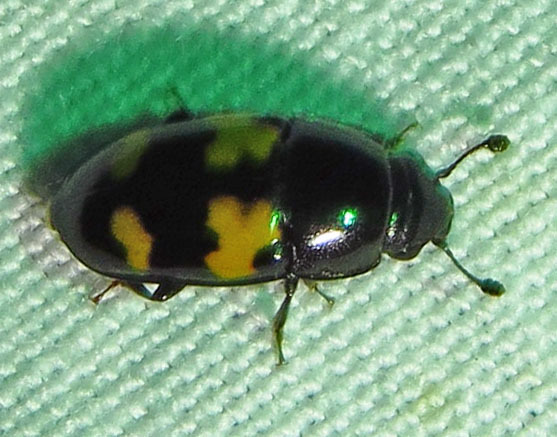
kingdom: Animalia
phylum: Arthropoda
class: Insecta
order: Coleoptera
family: Nitidulidae
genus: Glischrochilus
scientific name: Glischrochilus fasciatus
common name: Picnic beetle
